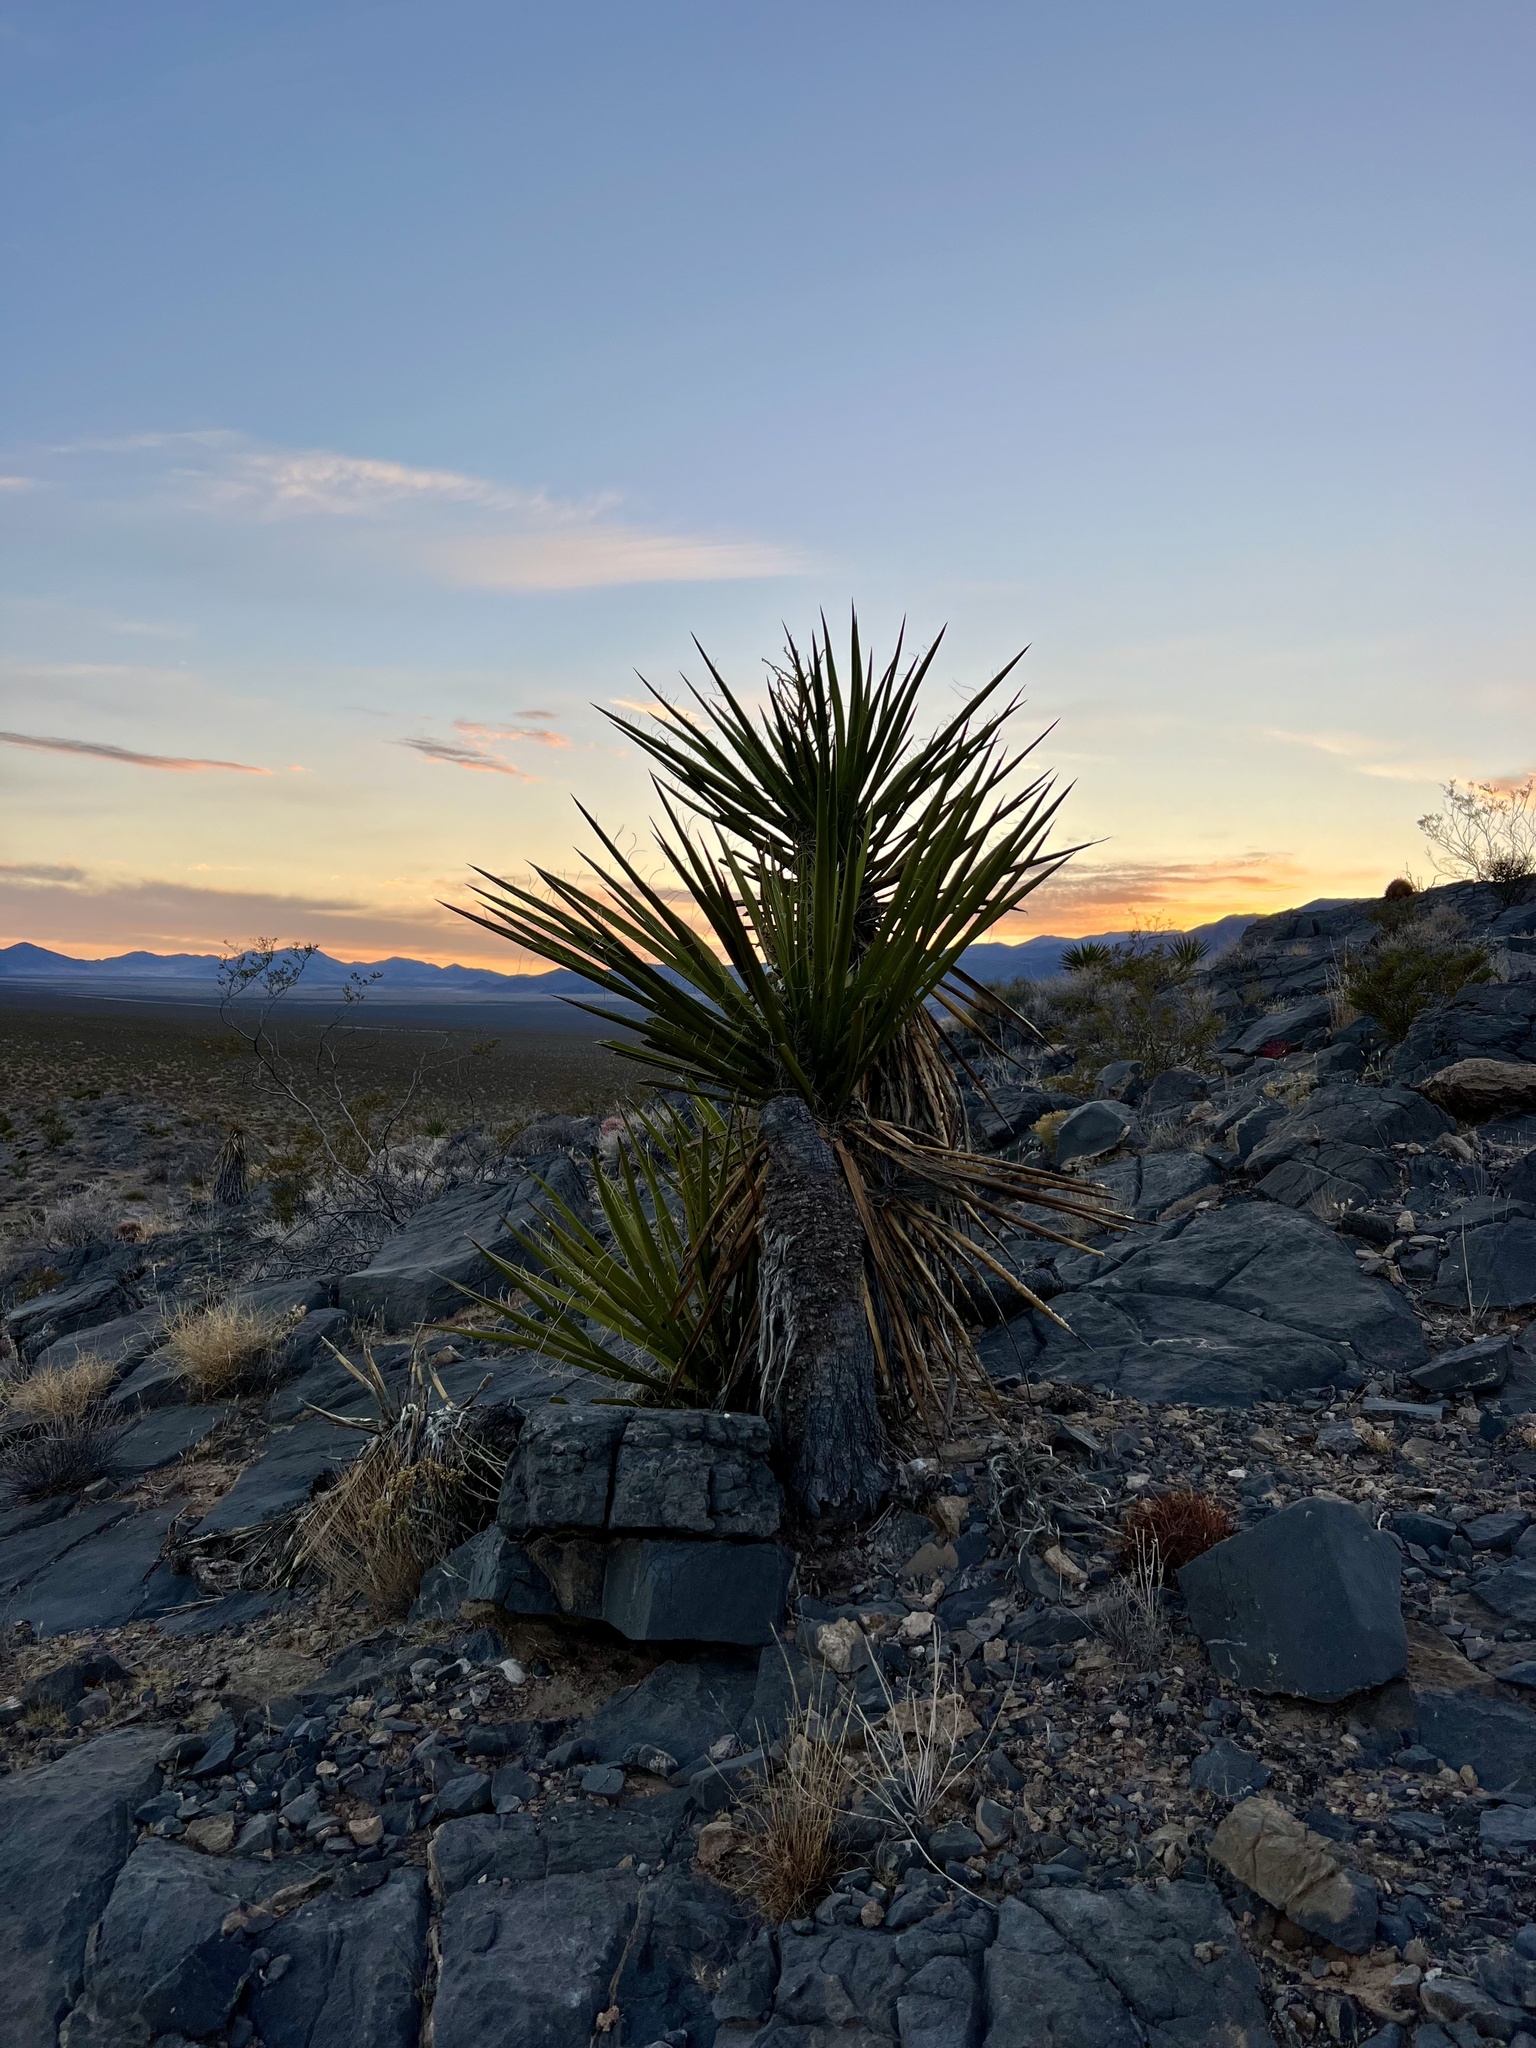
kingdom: Plantae
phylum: Tracheophyta
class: Liliopsida
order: Asparagales
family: Asparagaceae
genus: Yucca
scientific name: Yucca schidigera
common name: Mojave yucca
